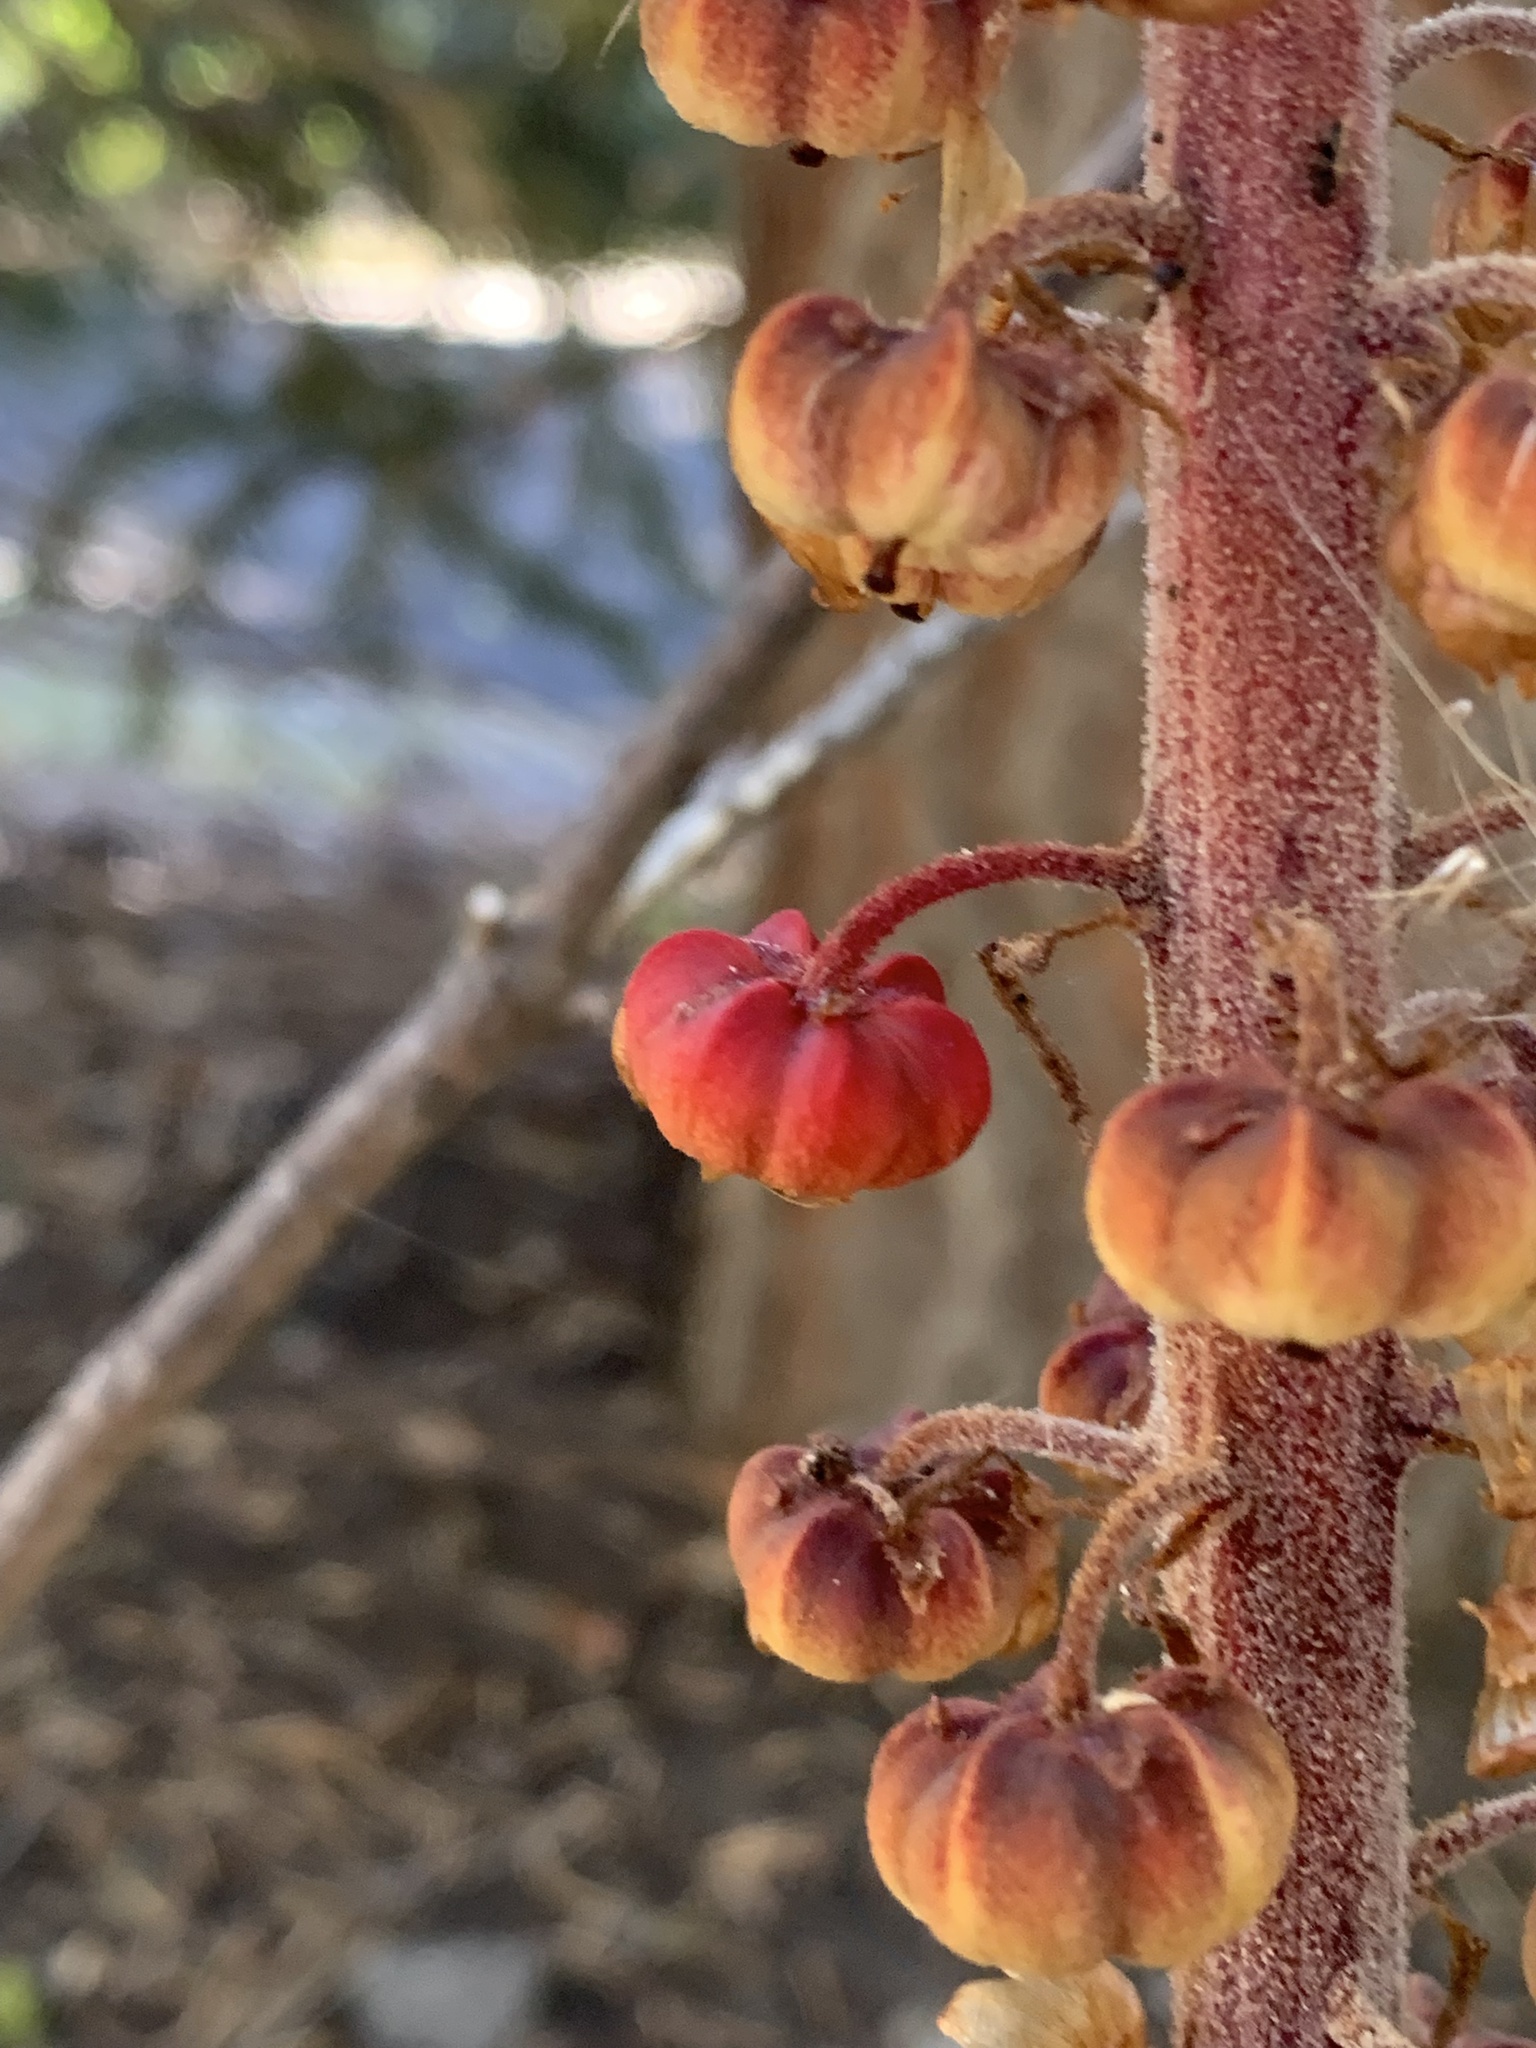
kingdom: Plantae
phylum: Tracheophyta
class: Magnoliopsida
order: Ericales
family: Ericaceae
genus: Pterospora
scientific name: Pterospora andromedea
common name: Giant bird's-nest
